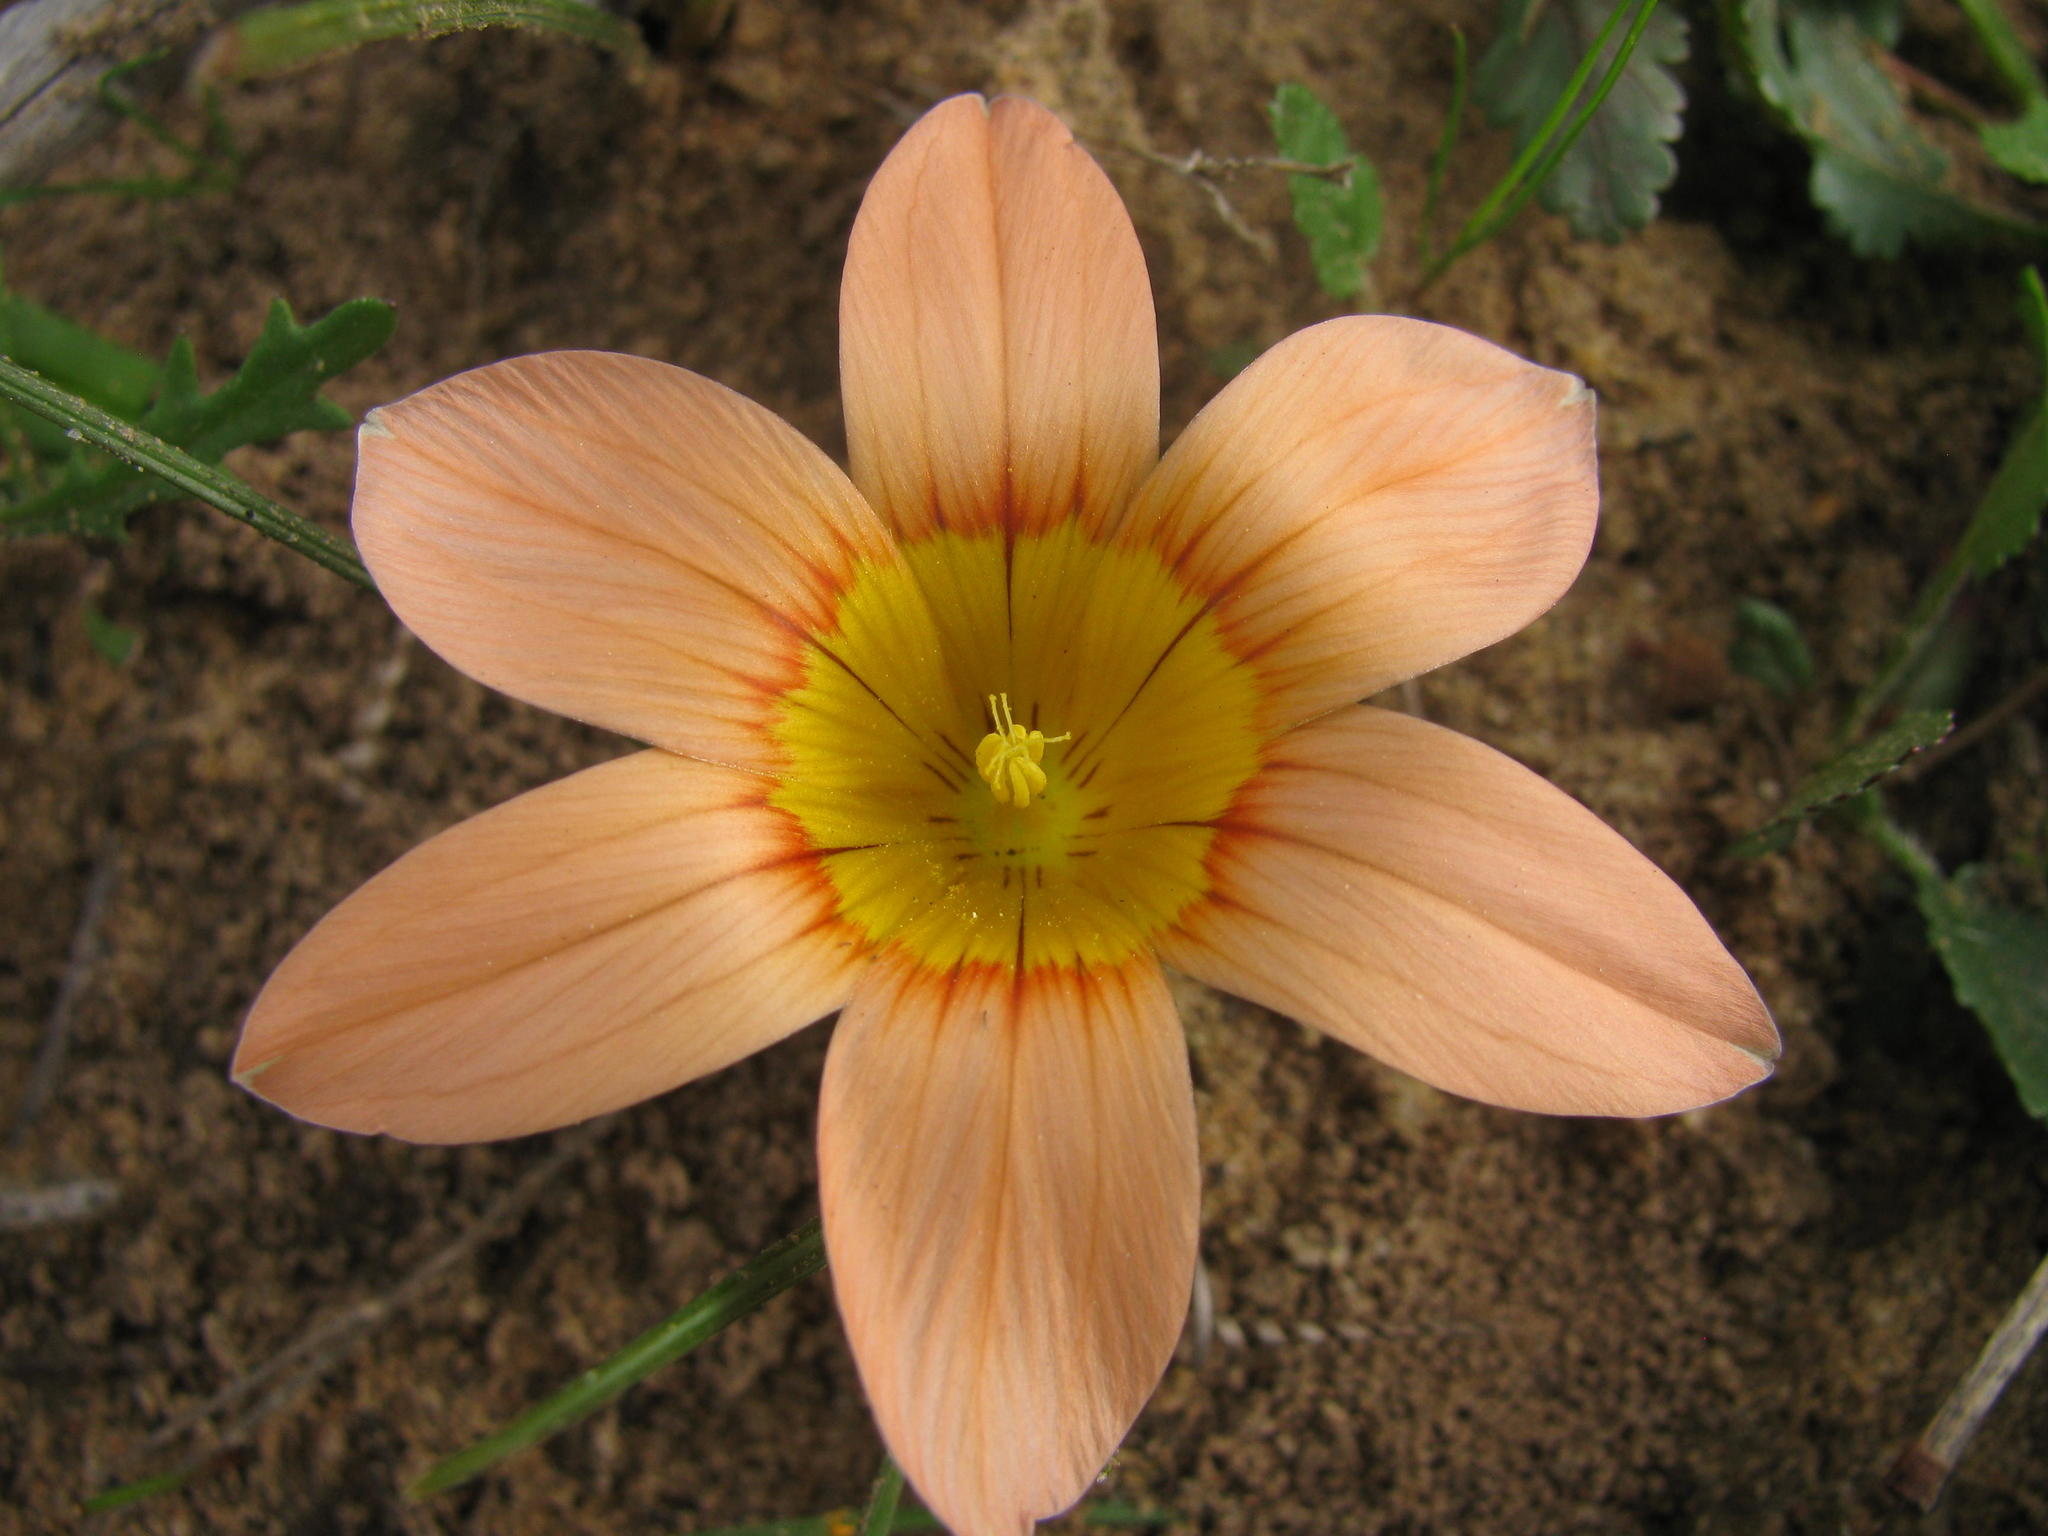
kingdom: Plantae
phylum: Tracheophyta
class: Liliopsida
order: Asparagales
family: Iridaceae
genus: Romulea
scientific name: Romulea setifolia
